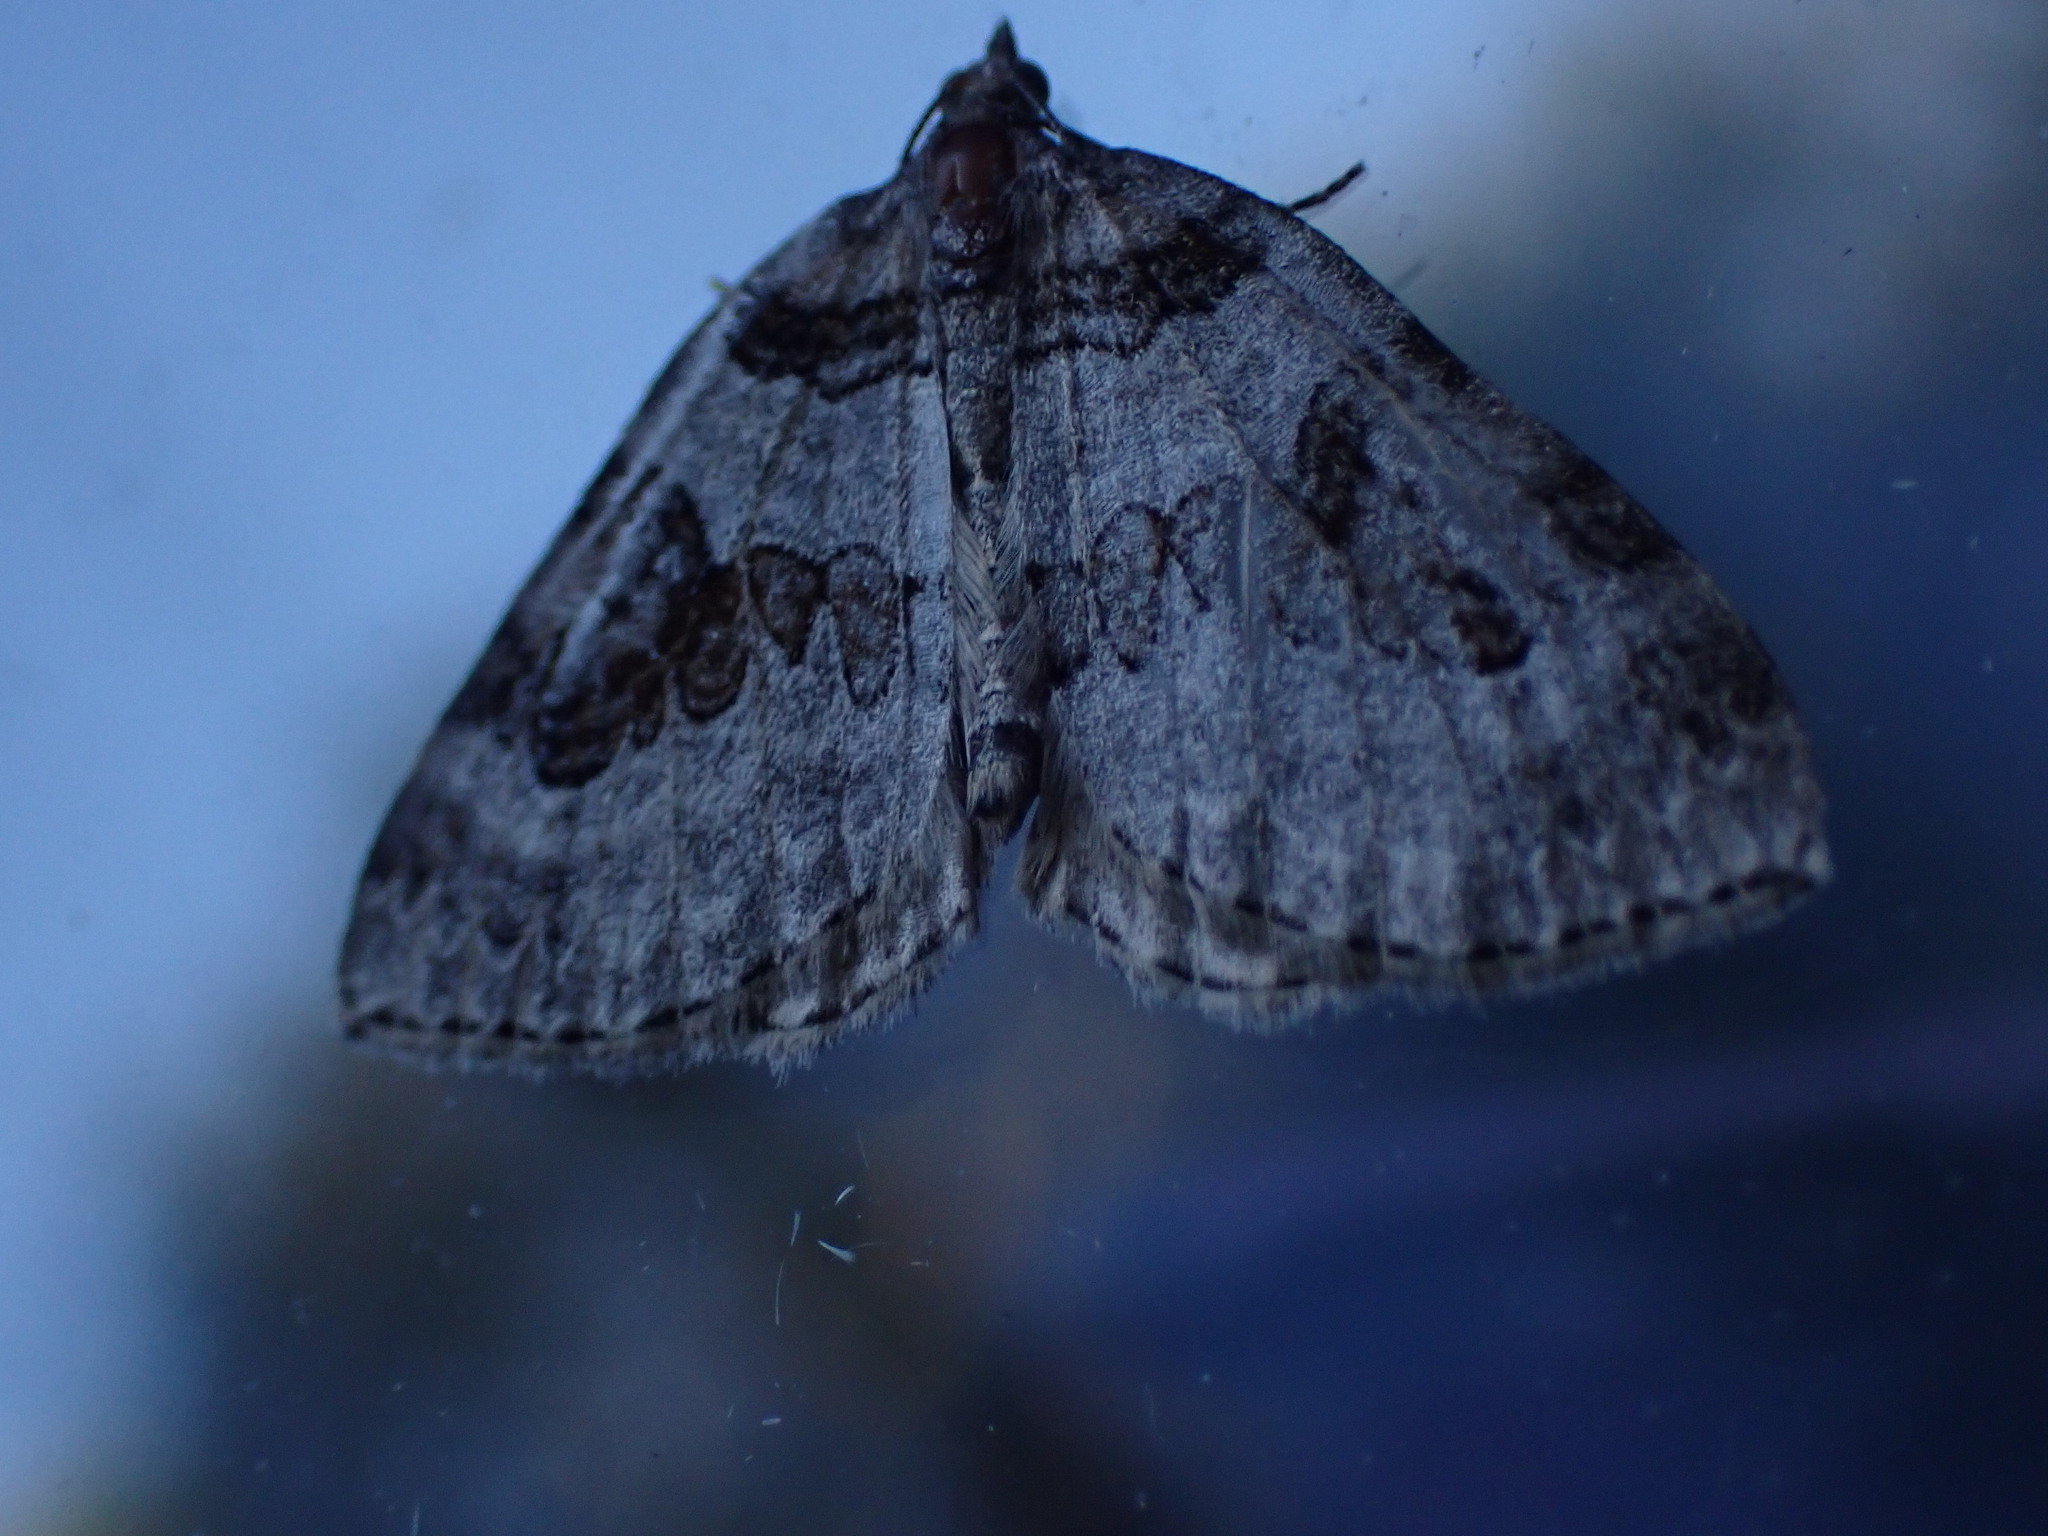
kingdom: Animalia
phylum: Arthropoda
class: Insecta
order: Lepidoptera
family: Geometridae
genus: Plemyria
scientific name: Plemyria georgii
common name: George's carpet moth
